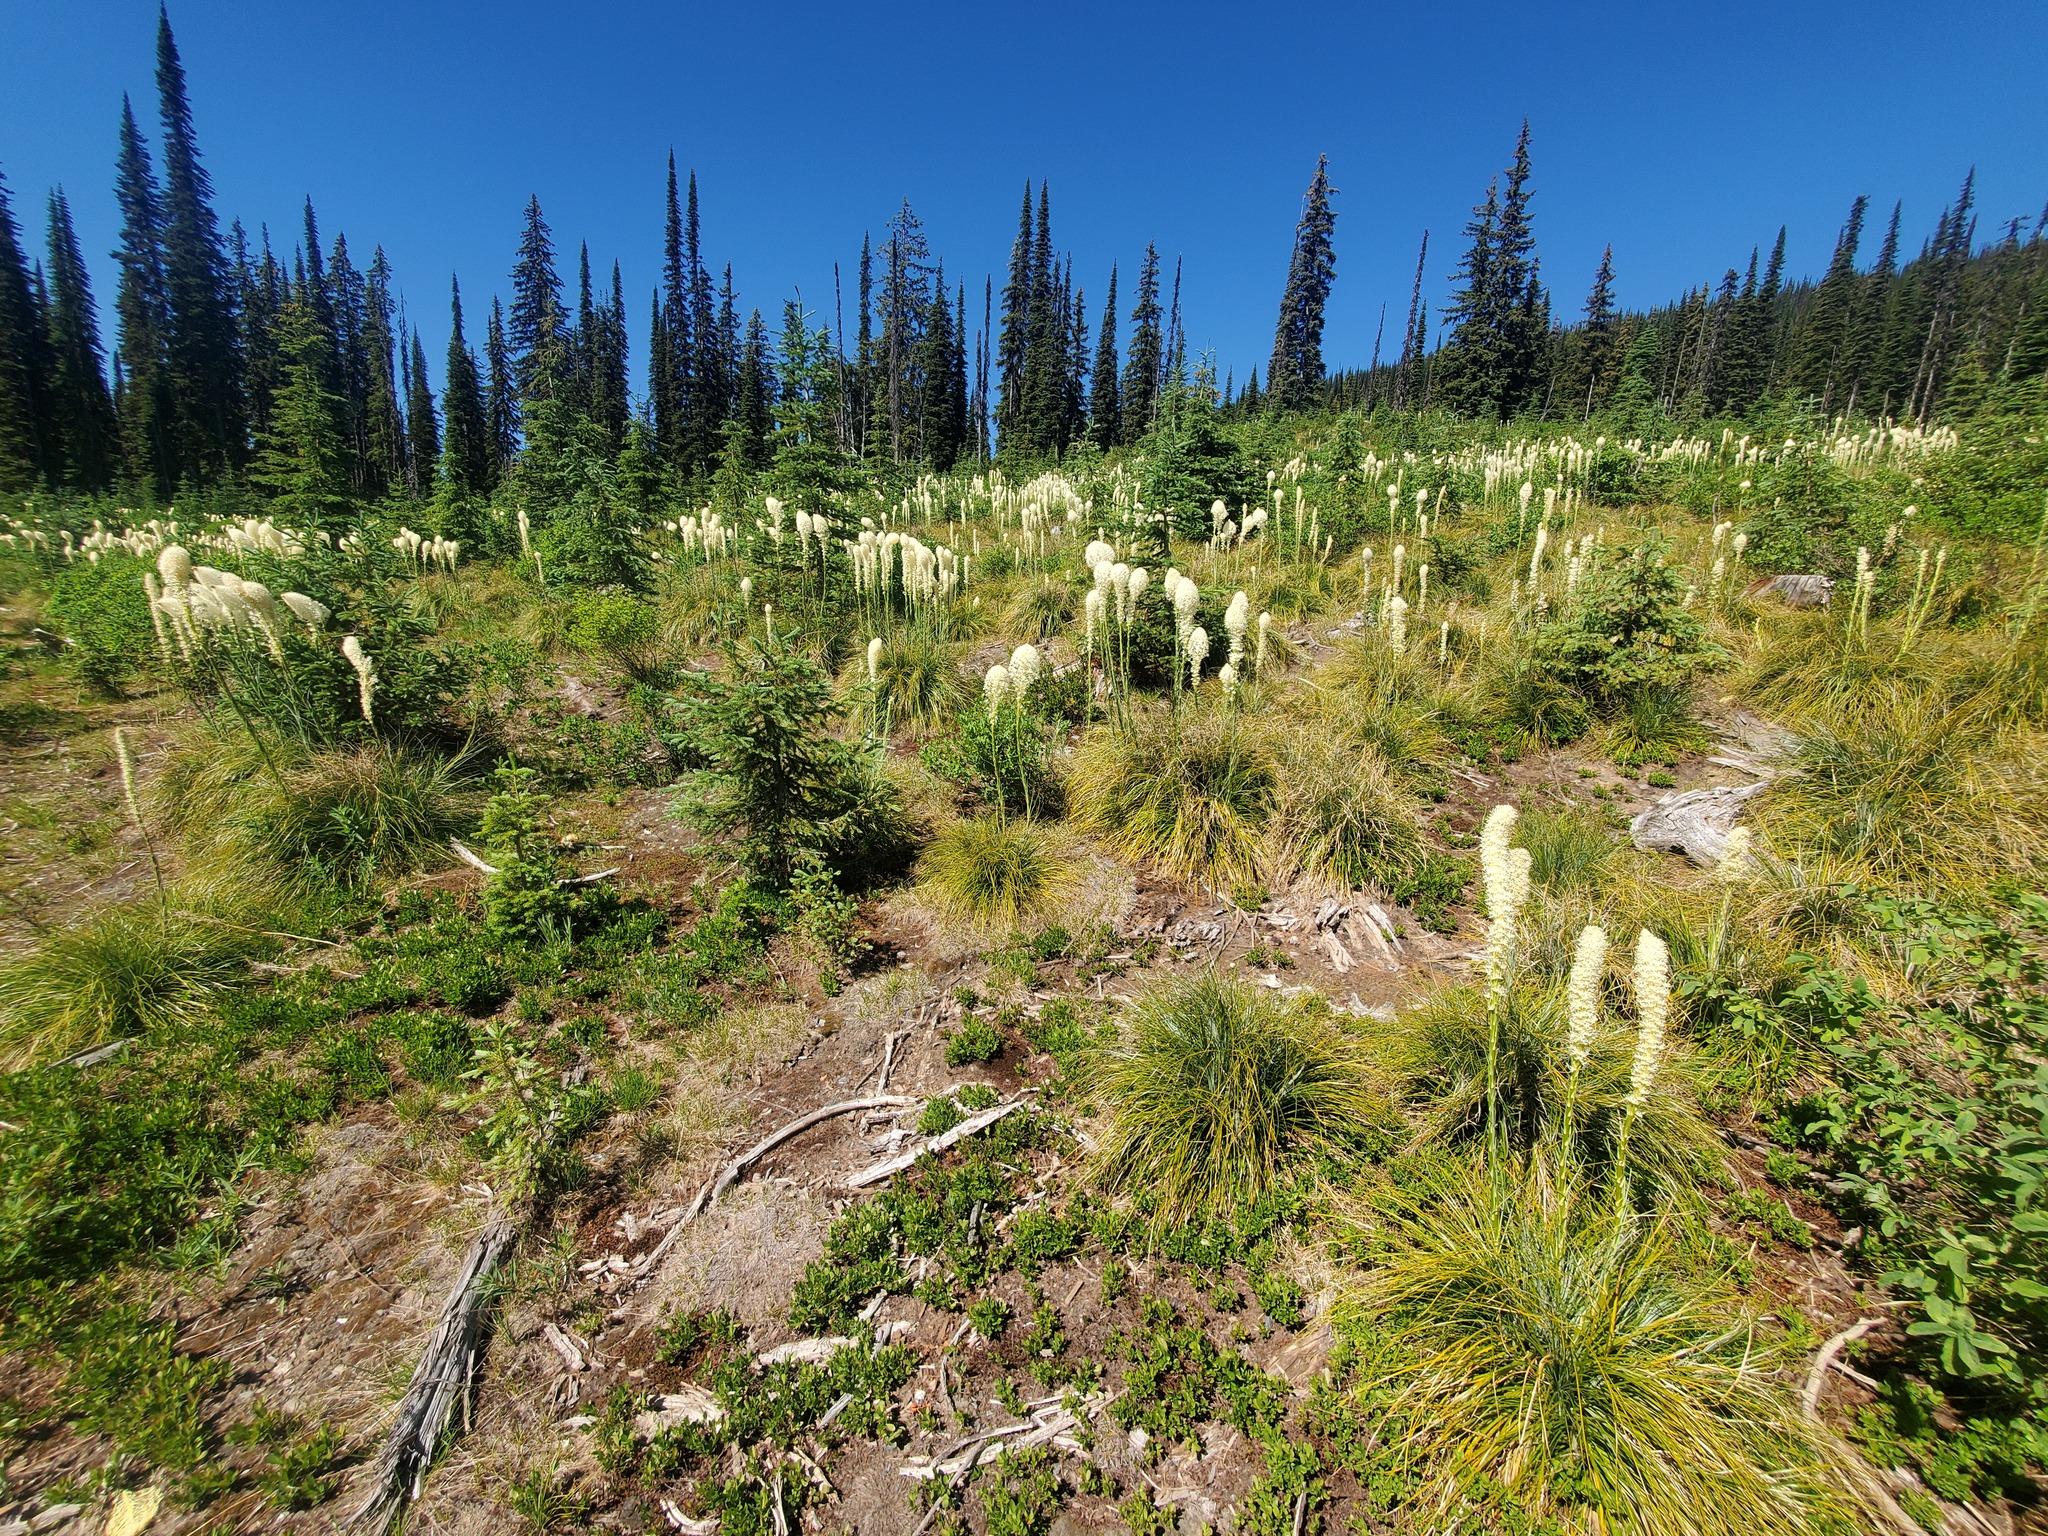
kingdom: Plantae
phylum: Tracheophyta
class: Liliopsida
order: Liliales
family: Melanthiaceae
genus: Xerophyllum
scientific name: Xerophyllum tenax
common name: Bear-grass
